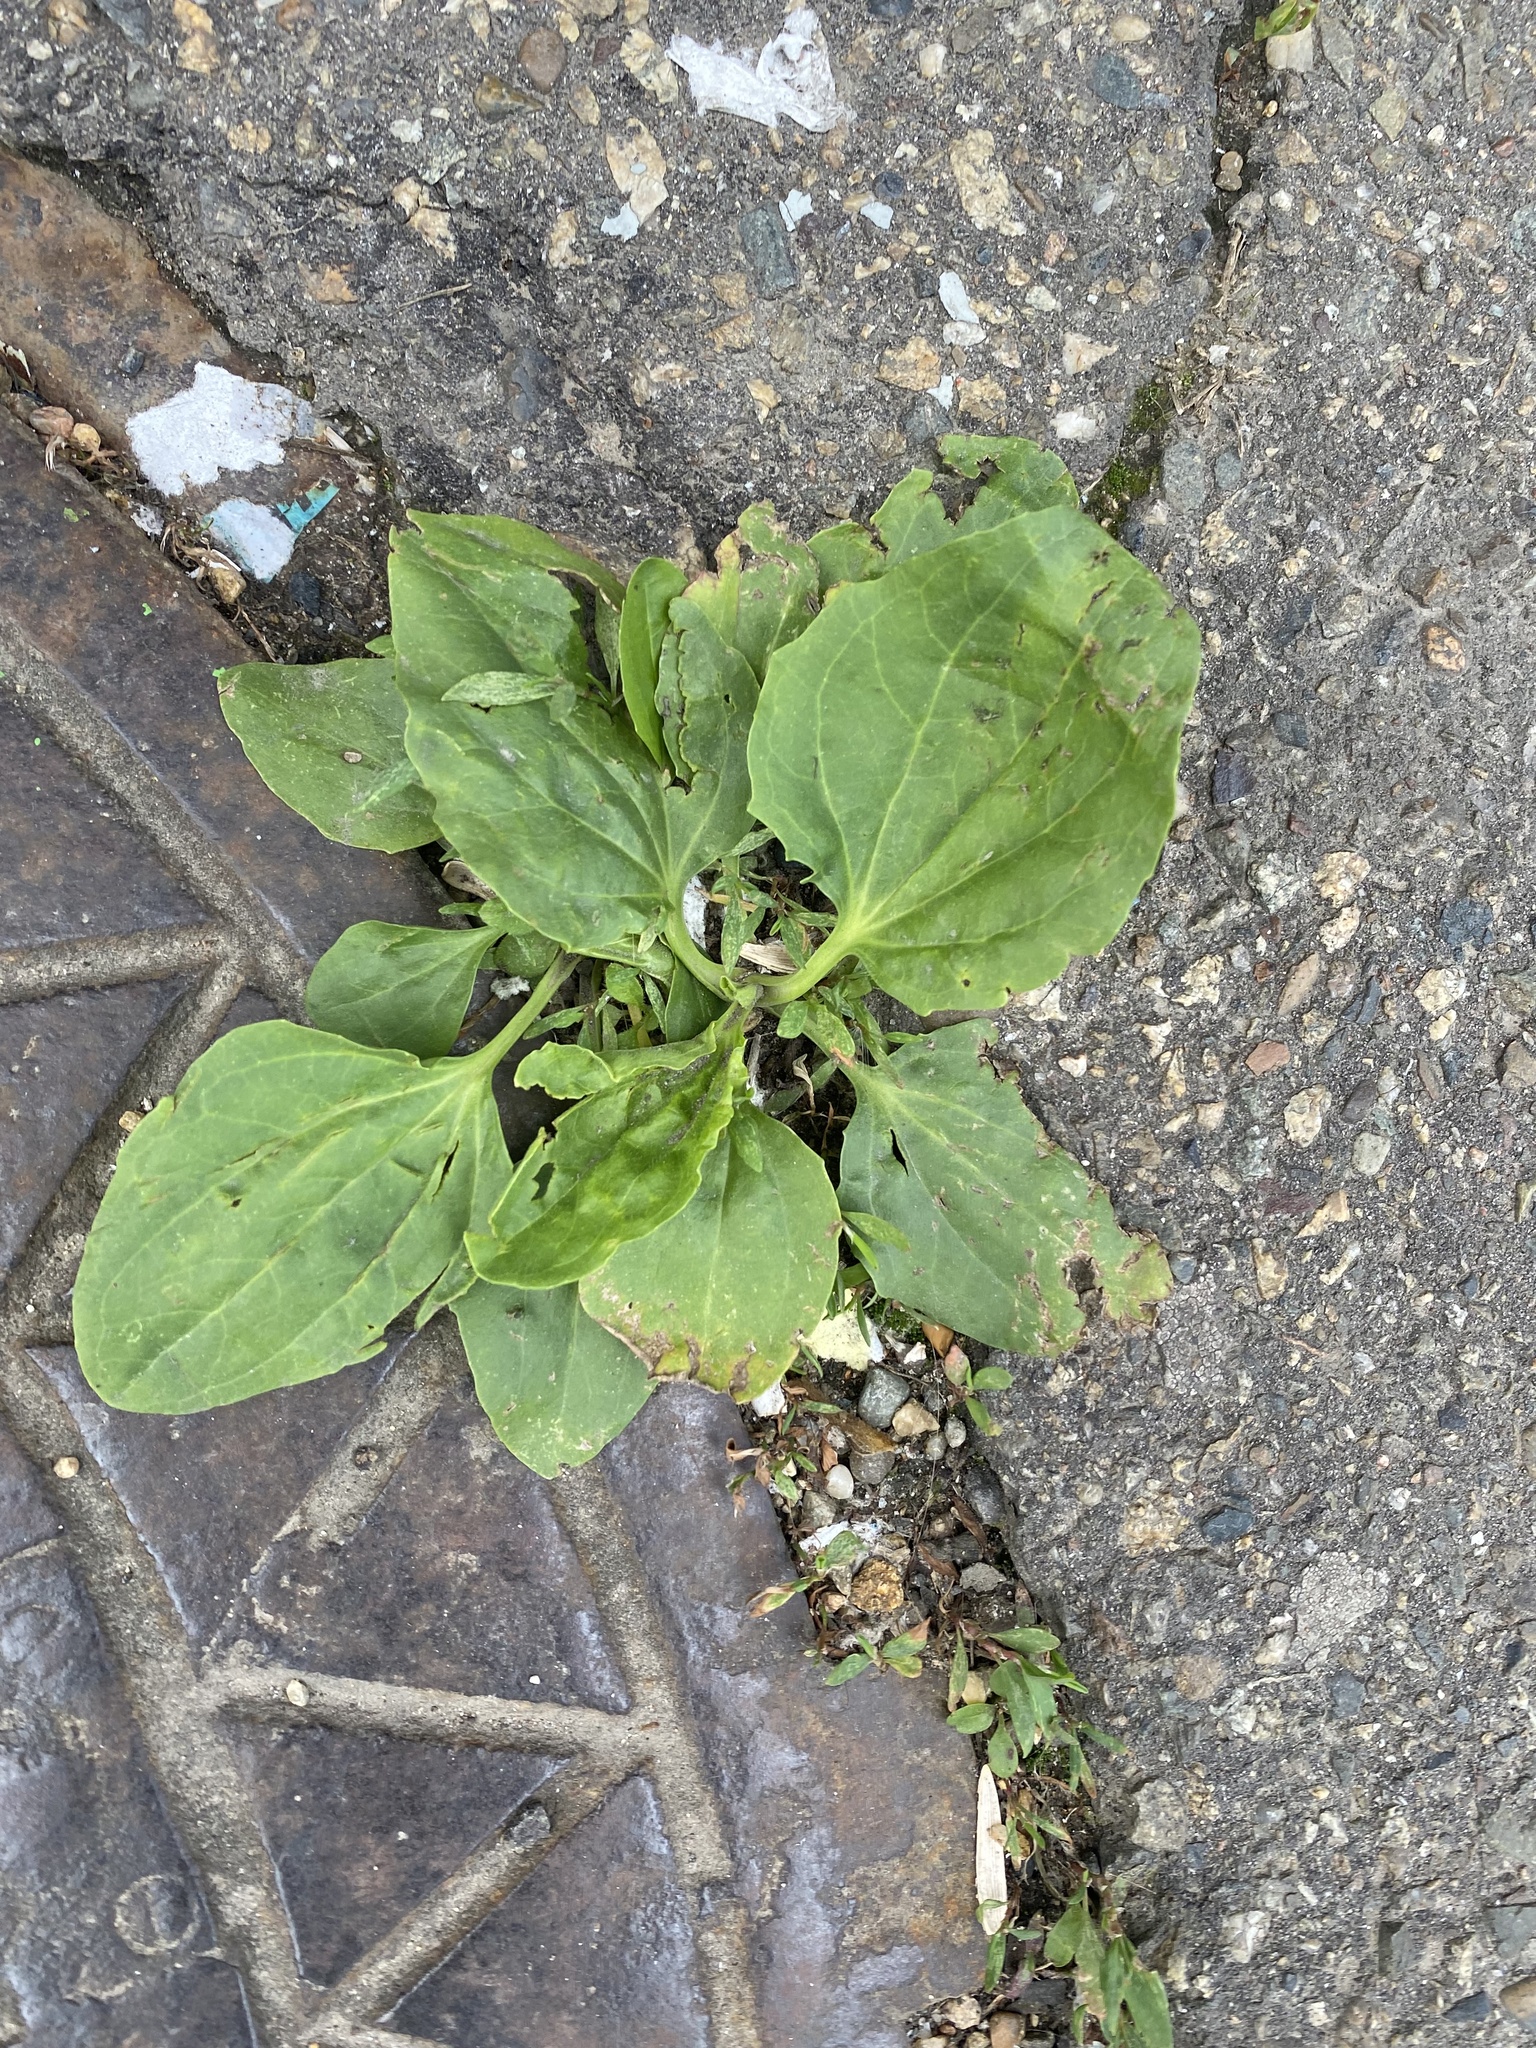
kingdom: Plantae
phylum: Tracheophyta
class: Magnoliopsida
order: Lamiales
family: Plantaginaceae
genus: Plantago
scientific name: Plantago major
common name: Common plantain
